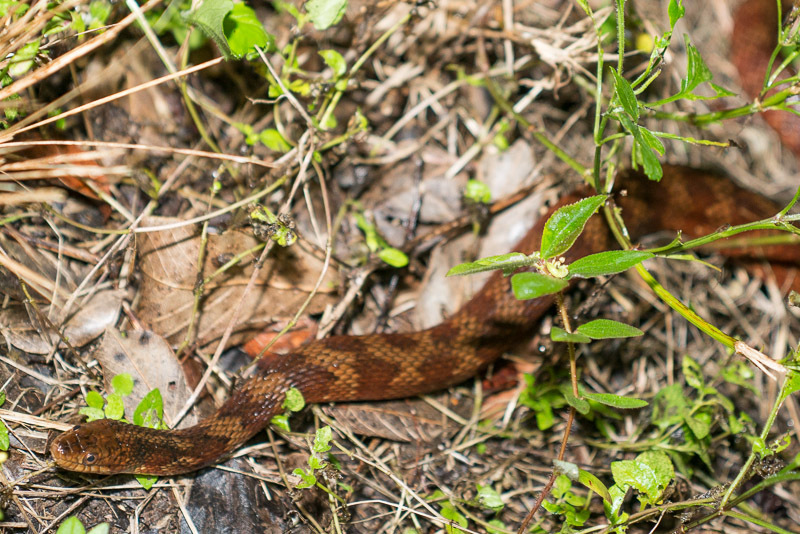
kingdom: Animalia
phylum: Chordata
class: Squamata
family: Colubridae
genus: Nerodia
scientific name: Nerodia fasciata
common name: Southern water snake
